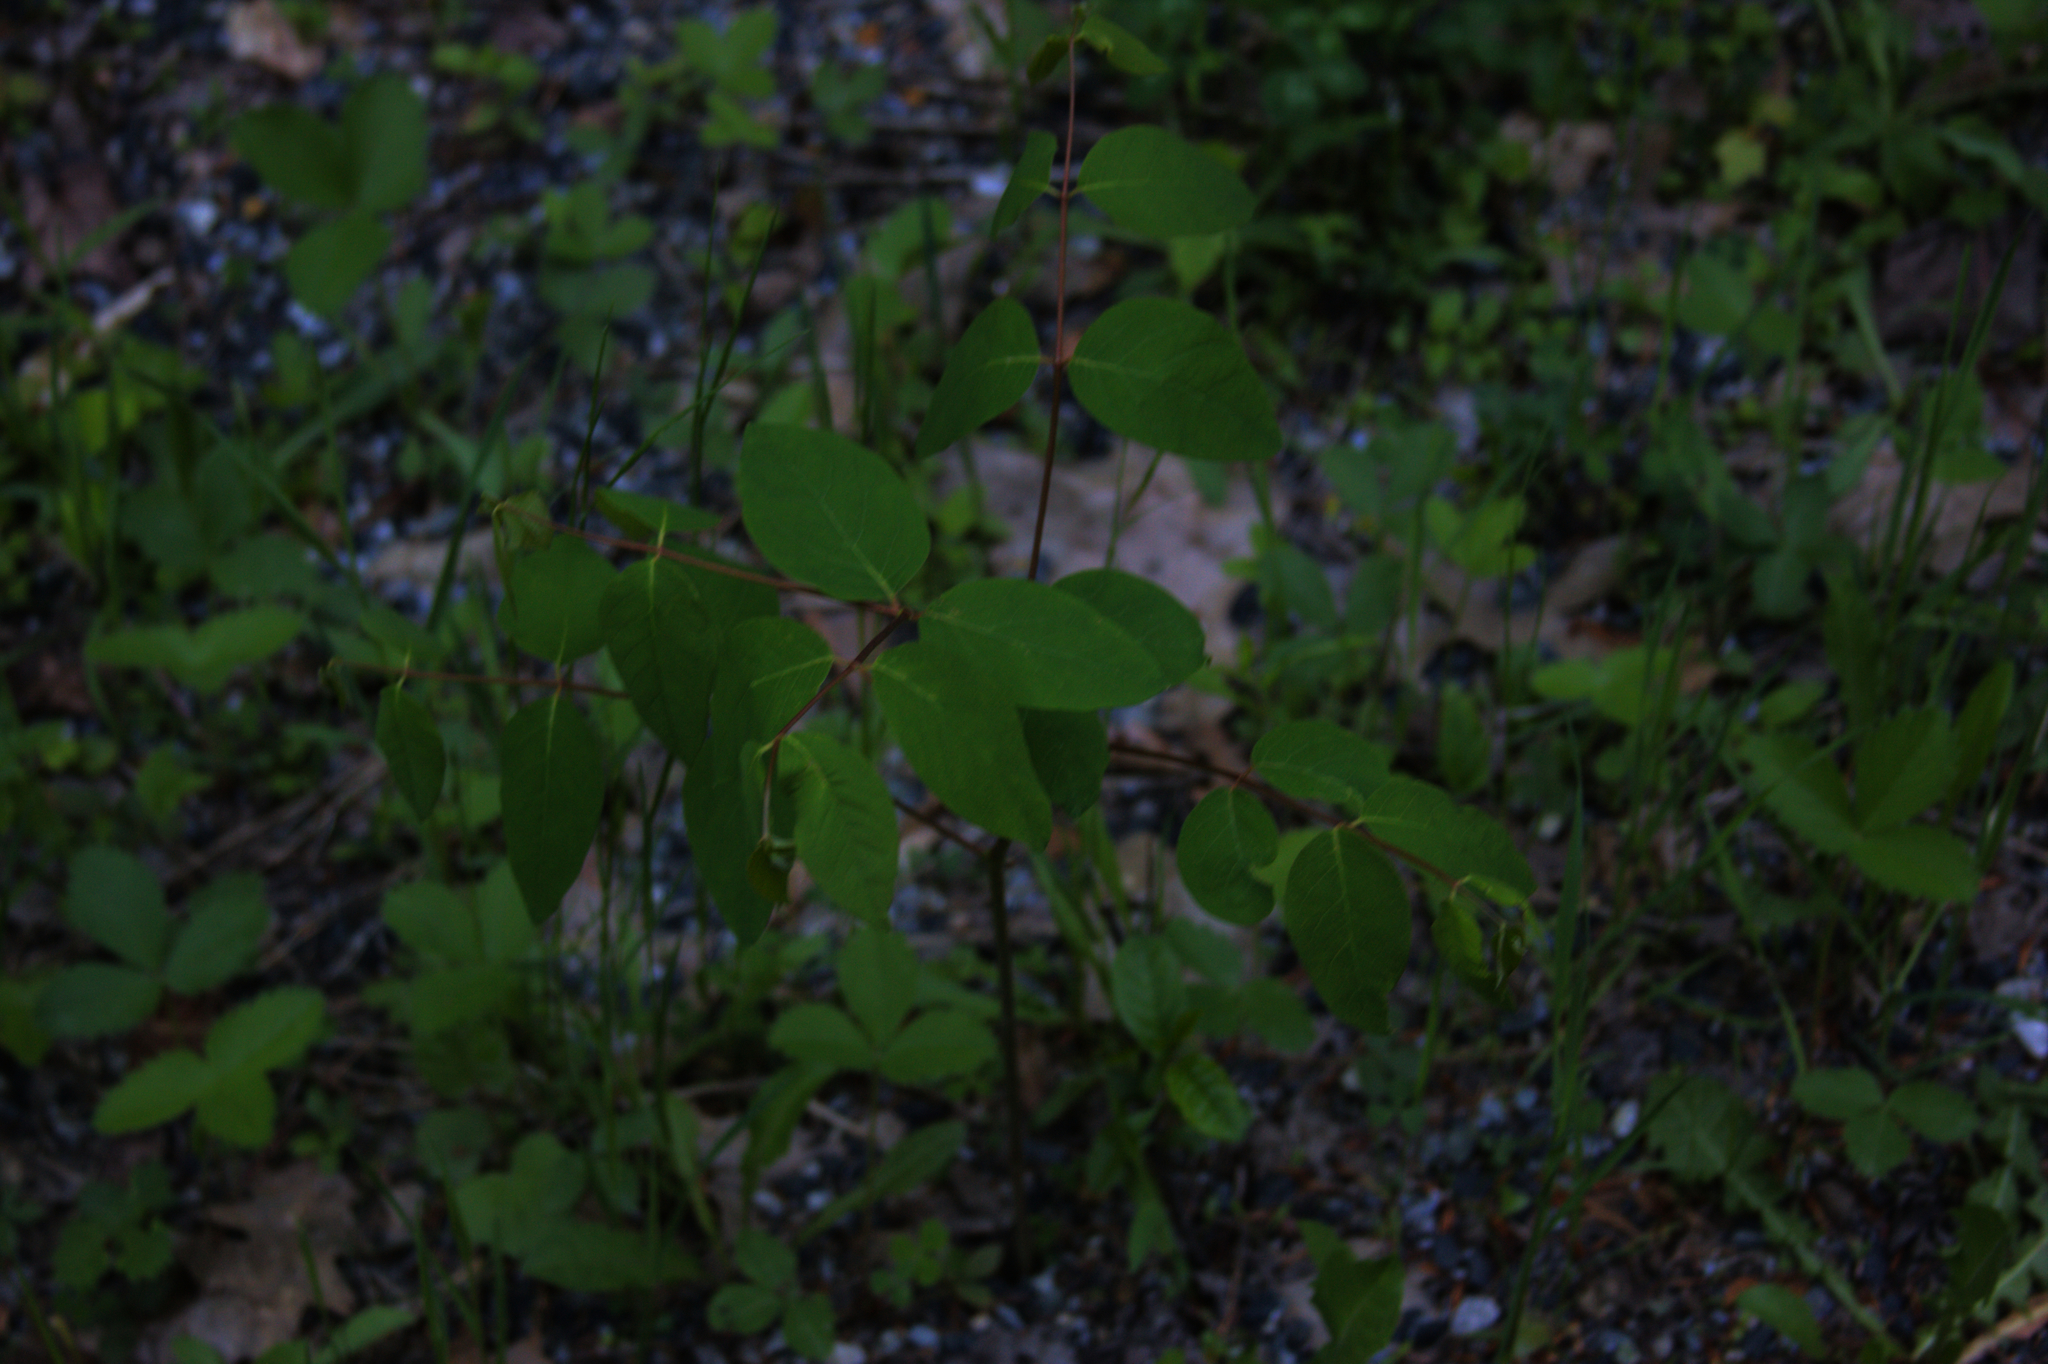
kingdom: Plantae
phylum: Tracheophyta
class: Magnoliopsida
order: Gentianales
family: Apocynaceae
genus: Apocynum
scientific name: Apocynum androsaemifolium
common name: Spreading dogbane
